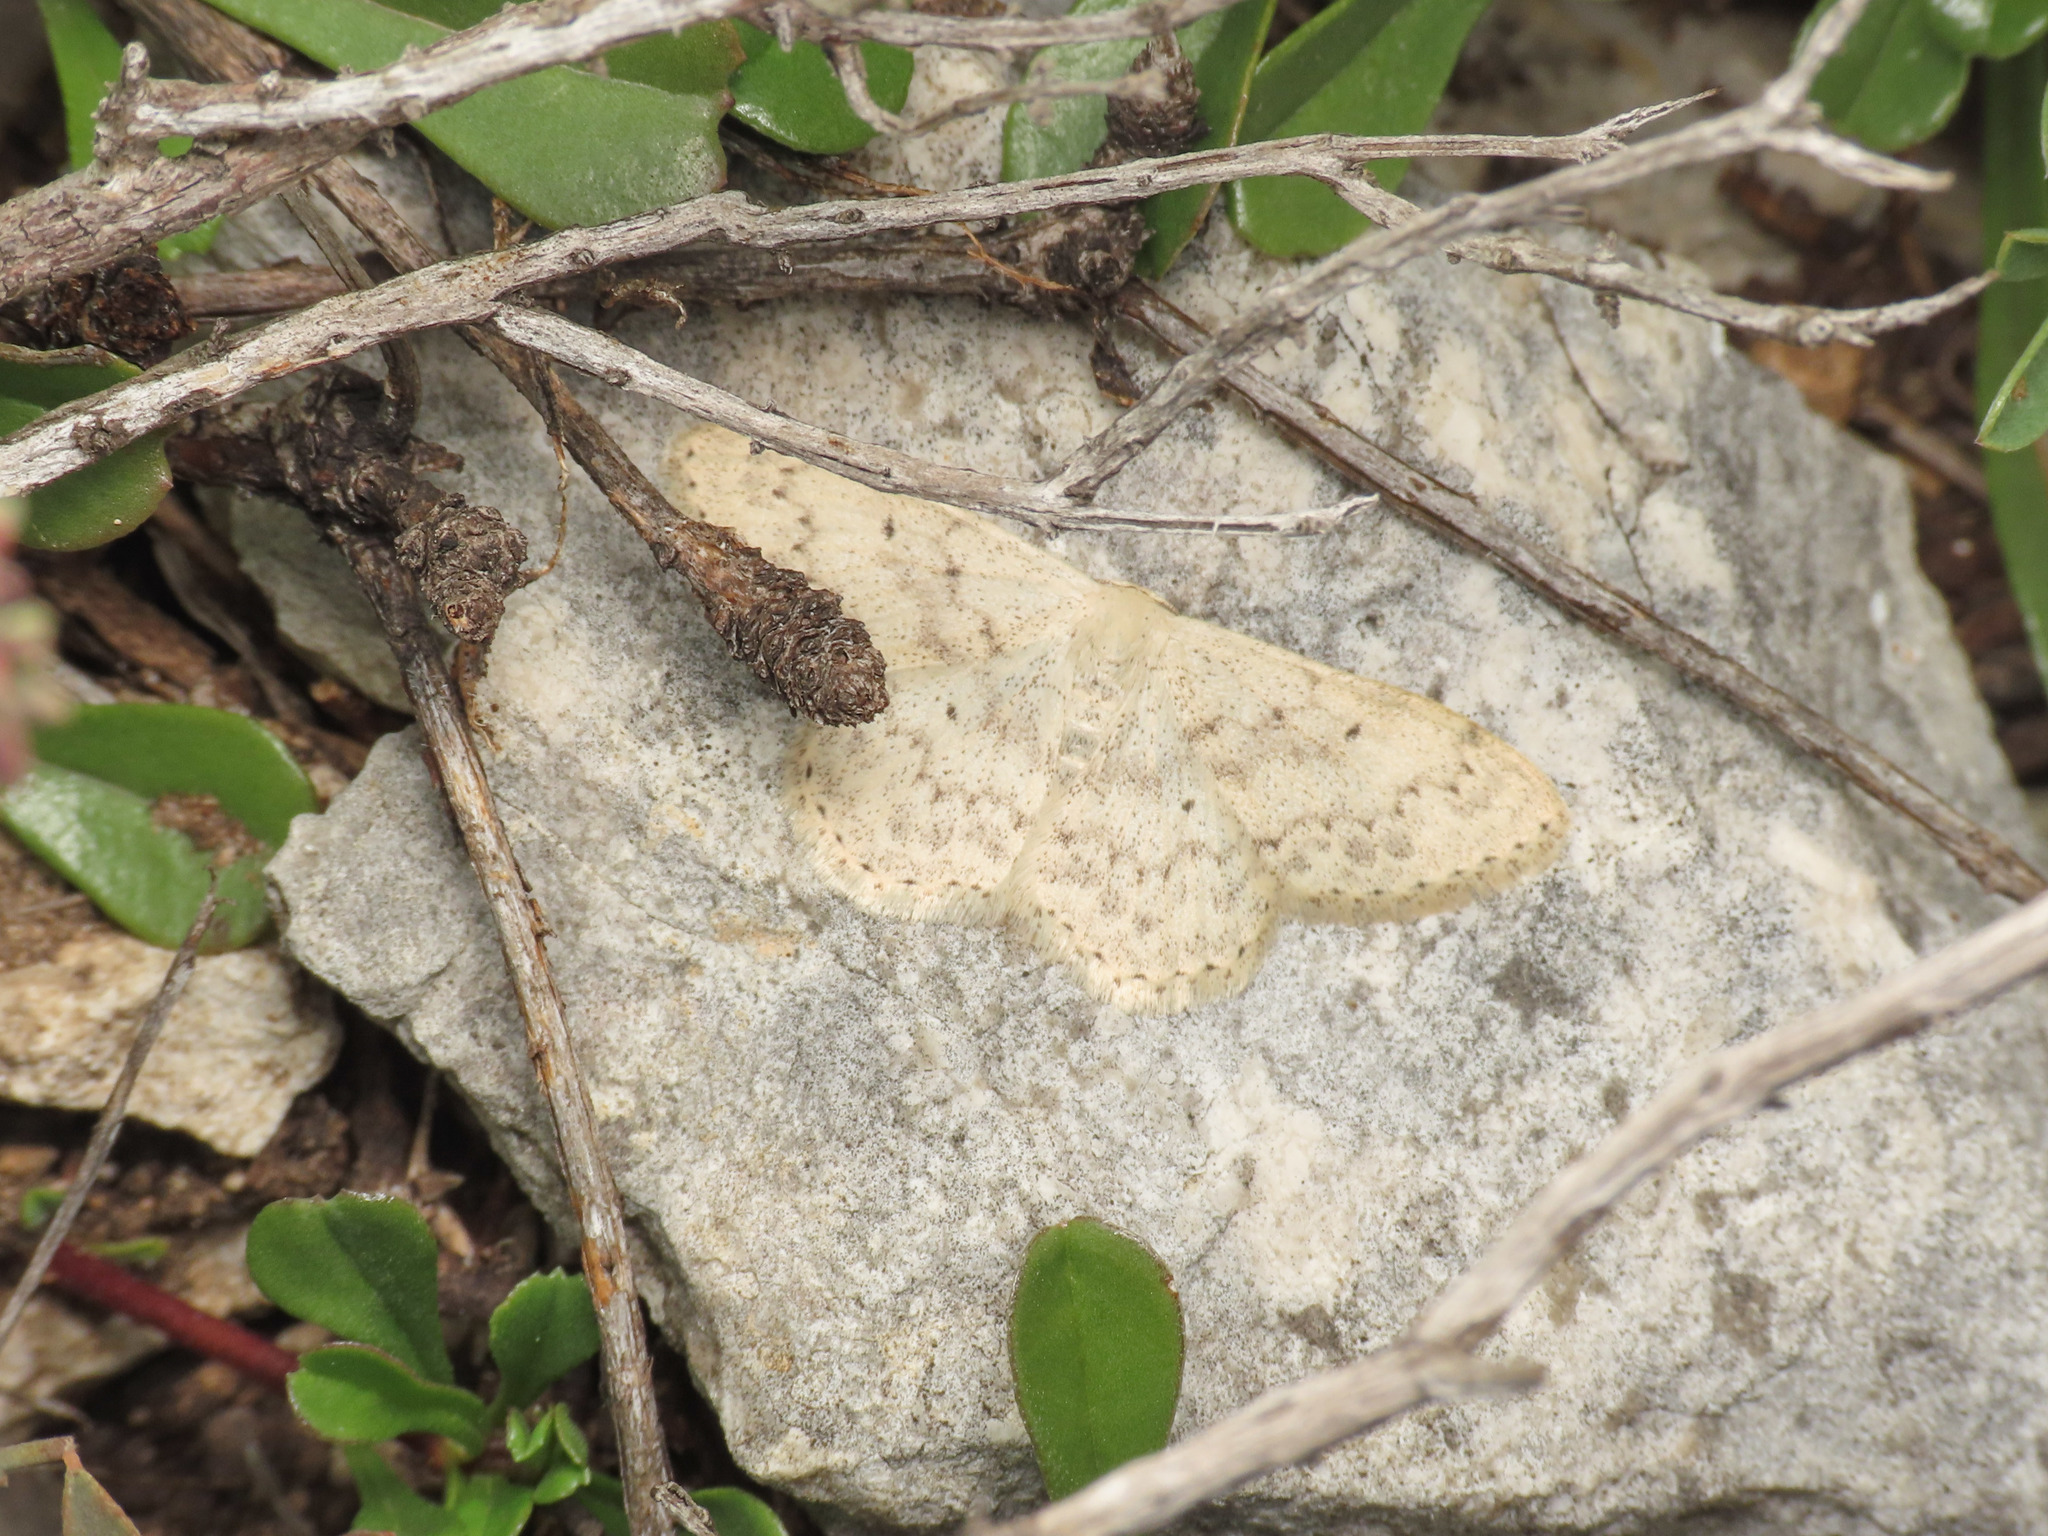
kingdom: Animalia
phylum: Arthropoda
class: Insecta
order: Lepidoptera
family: Geometridae
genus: Scopula
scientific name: Scopula marginepunctata
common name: Mullein wave
